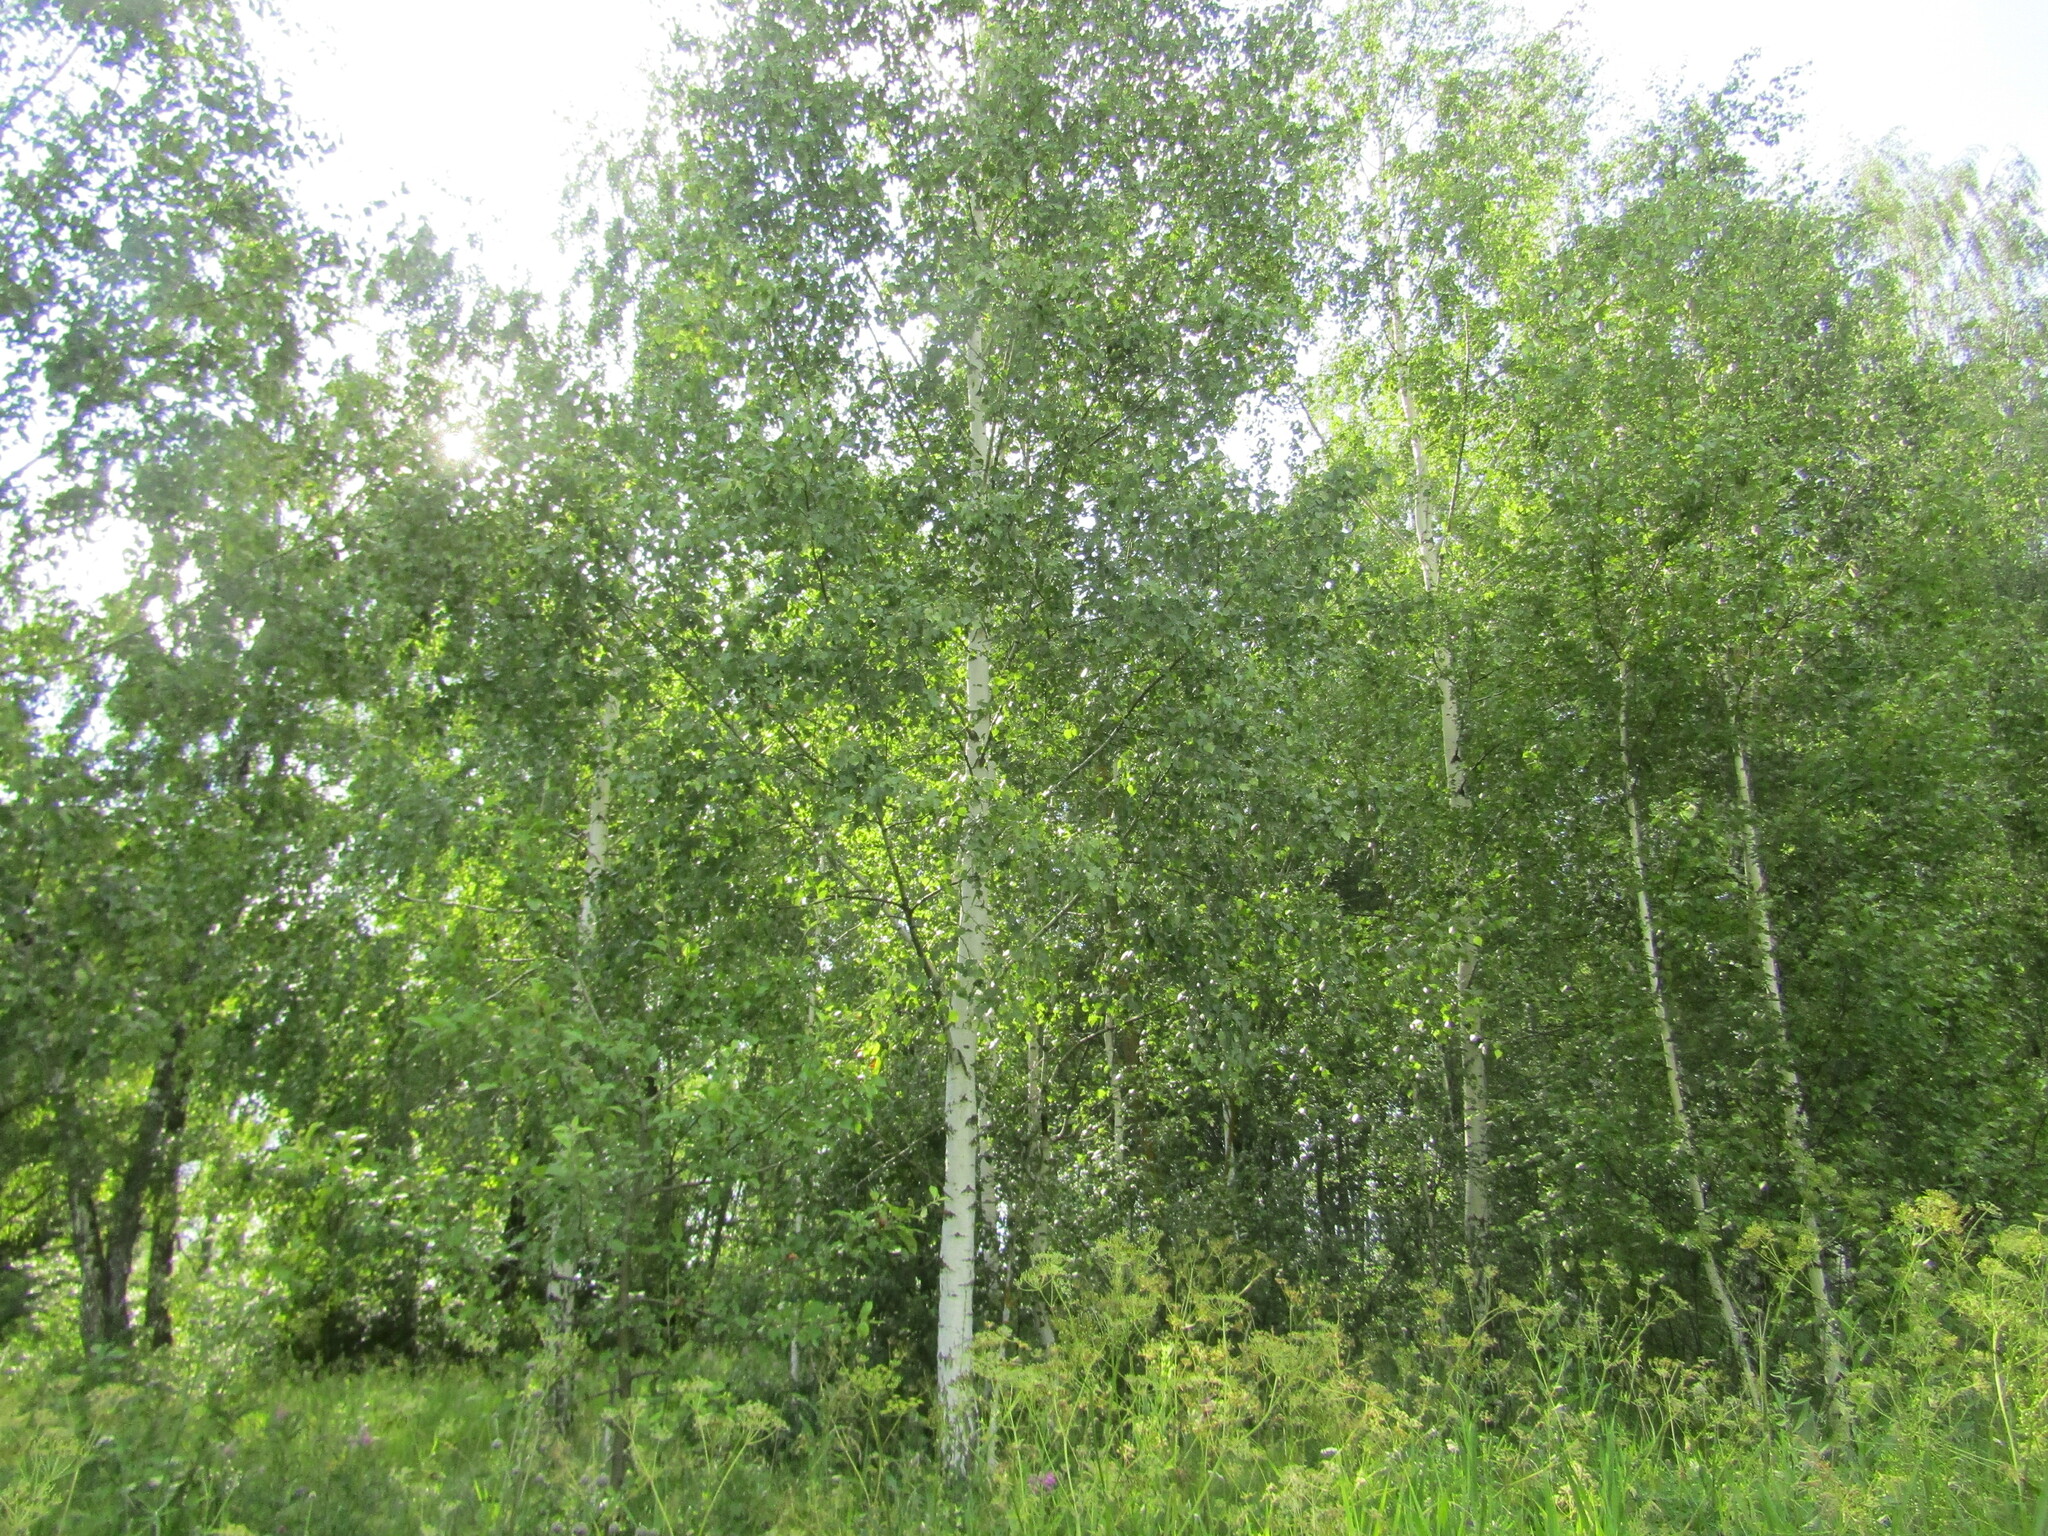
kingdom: Plantae
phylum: Tracheophyta
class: Magnoliopsida
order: Fagales
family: Betulaceae
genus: Betula
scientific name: Betula pendula
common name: Silver birch
